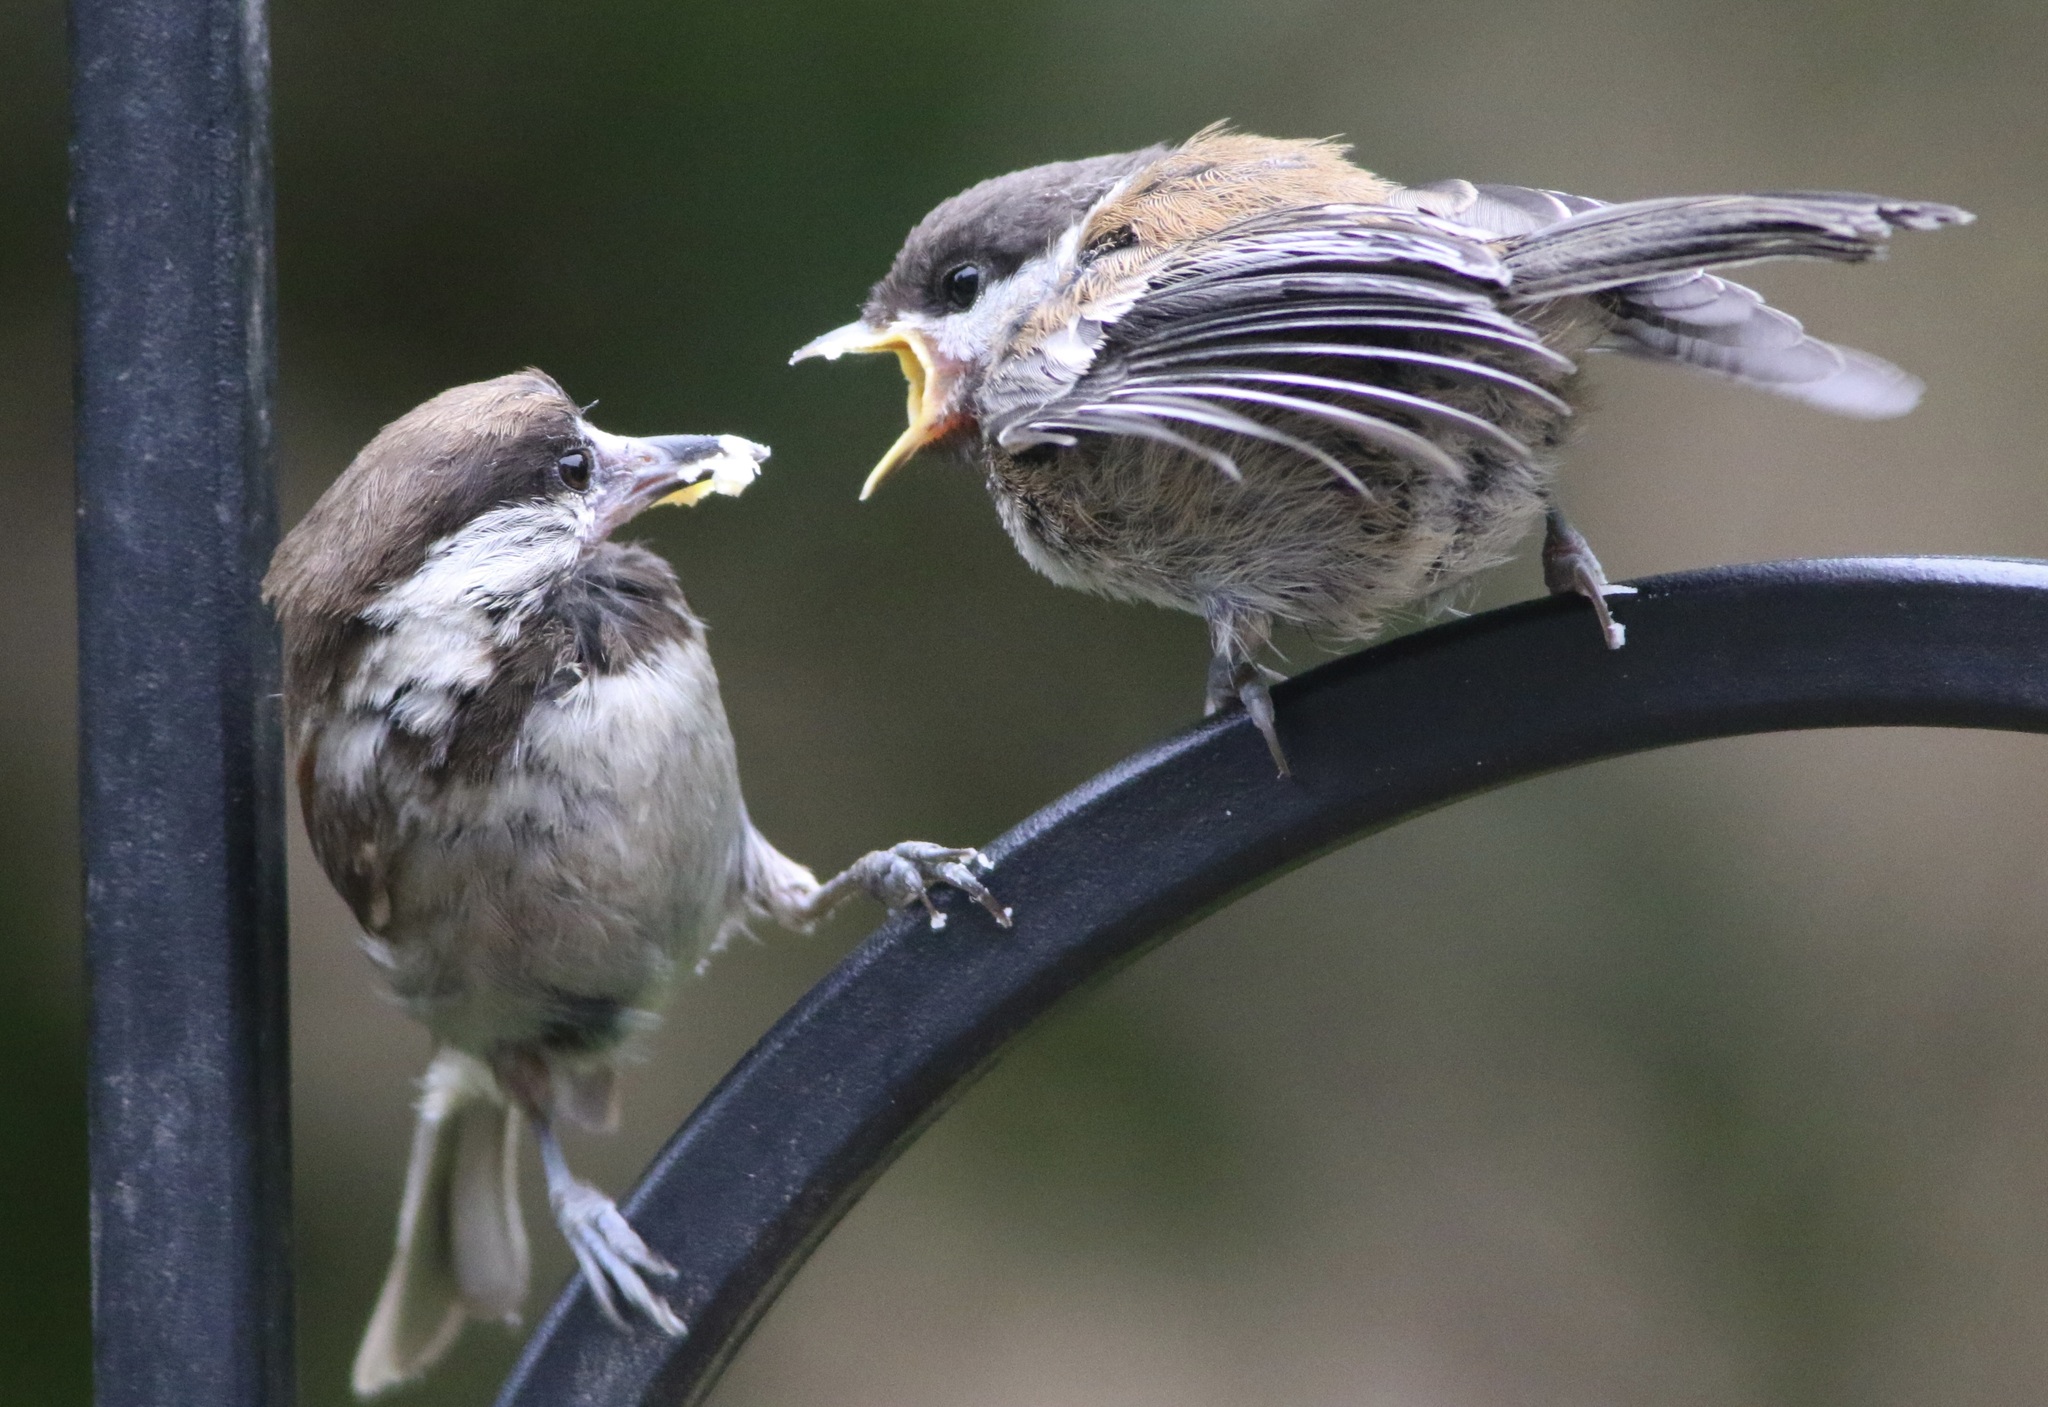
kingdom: Animalia
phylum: Chordata
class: Aves
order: Passeriformes
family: Paridae
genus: Poecile
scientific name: Poecile rufescens
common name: Chestnut-backed chickadee
